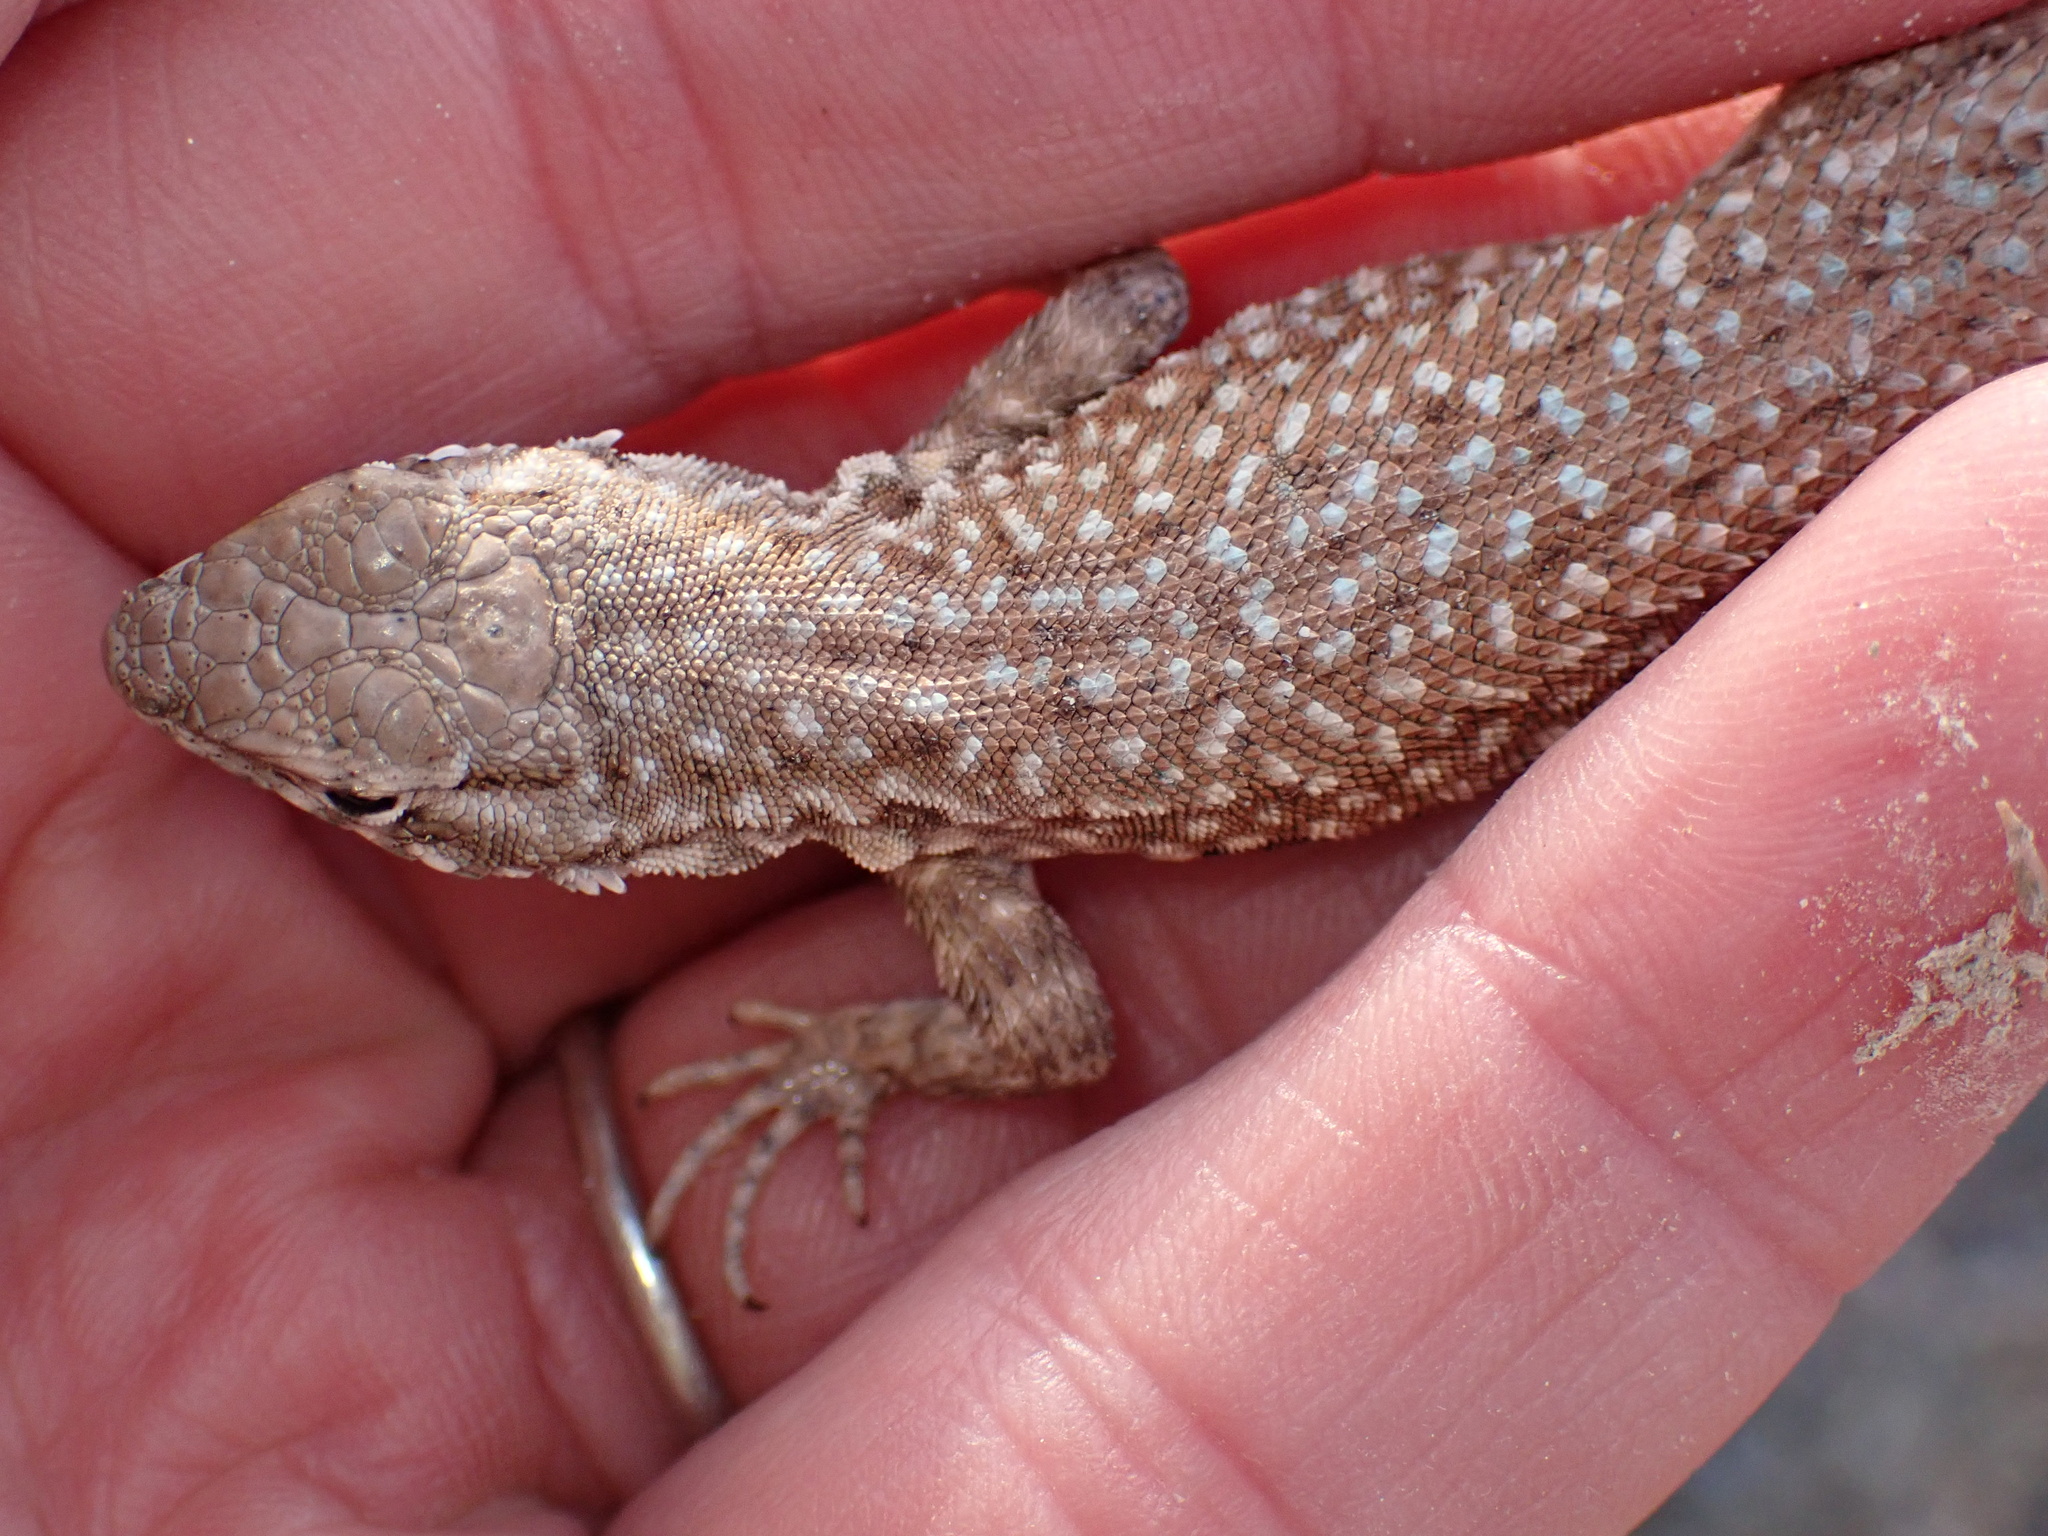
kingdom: Animalia
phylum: Chordata
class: Squamata
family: Phrynosomatidae
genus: Uta
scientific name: Uta stansburiana
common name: Side-blotched lizard
